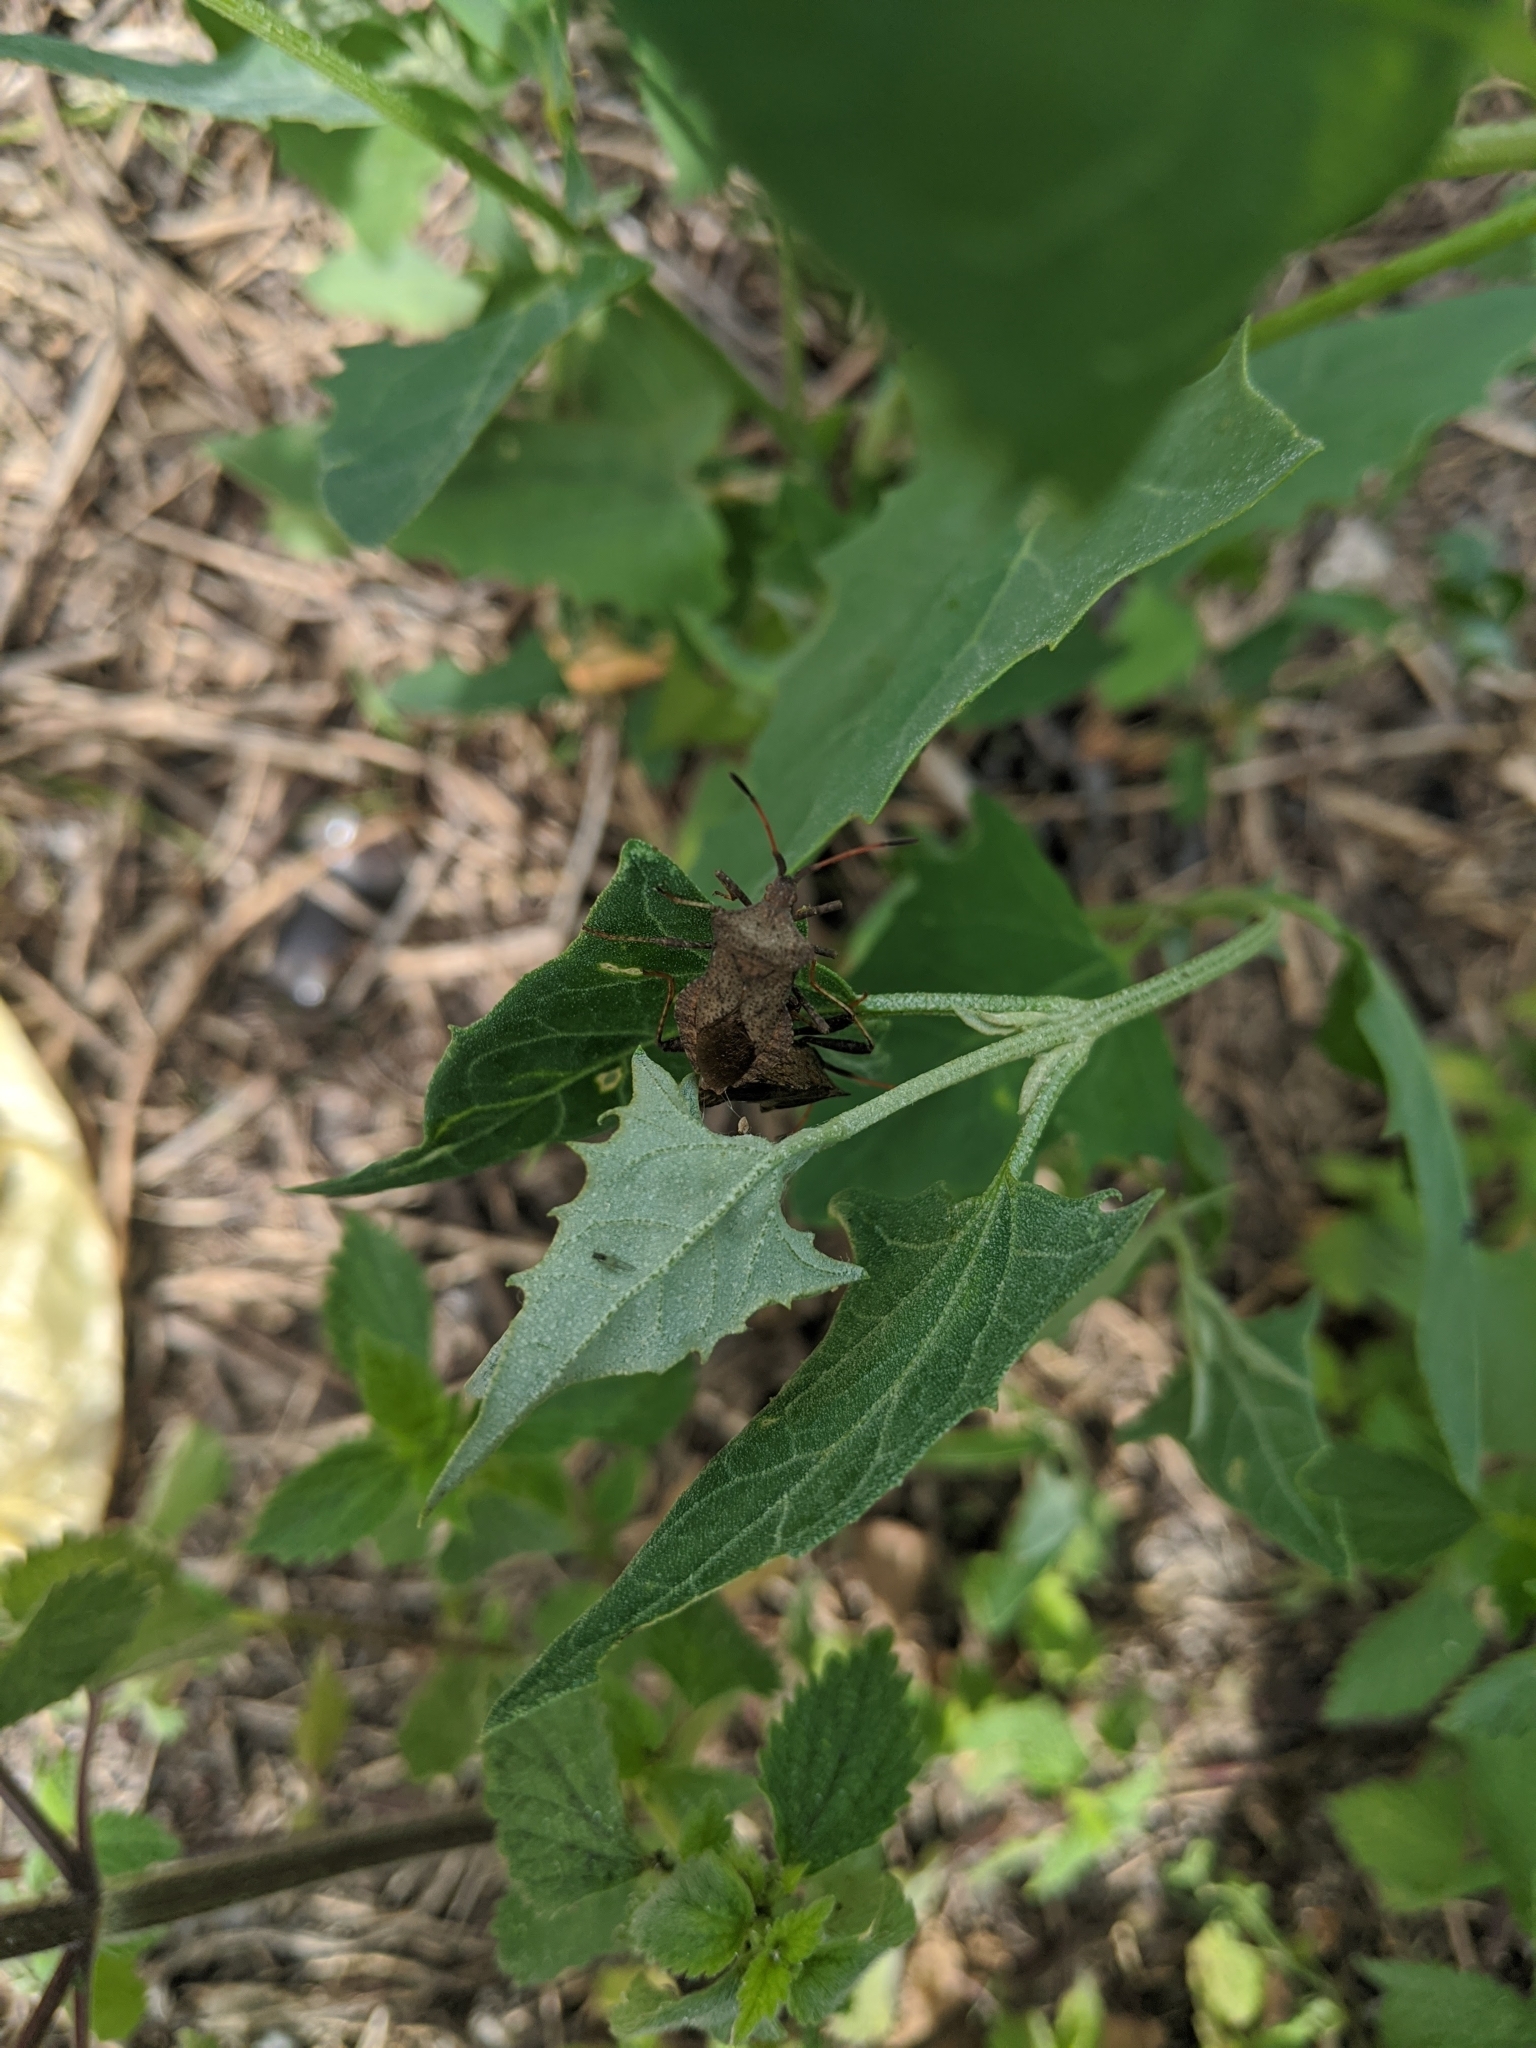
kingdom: Animalia
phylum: Arthropoda
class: Insecta
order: Hemiptera
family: Coreidae
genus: Coreus
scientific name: Coreus marginatus
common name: Dock bug
